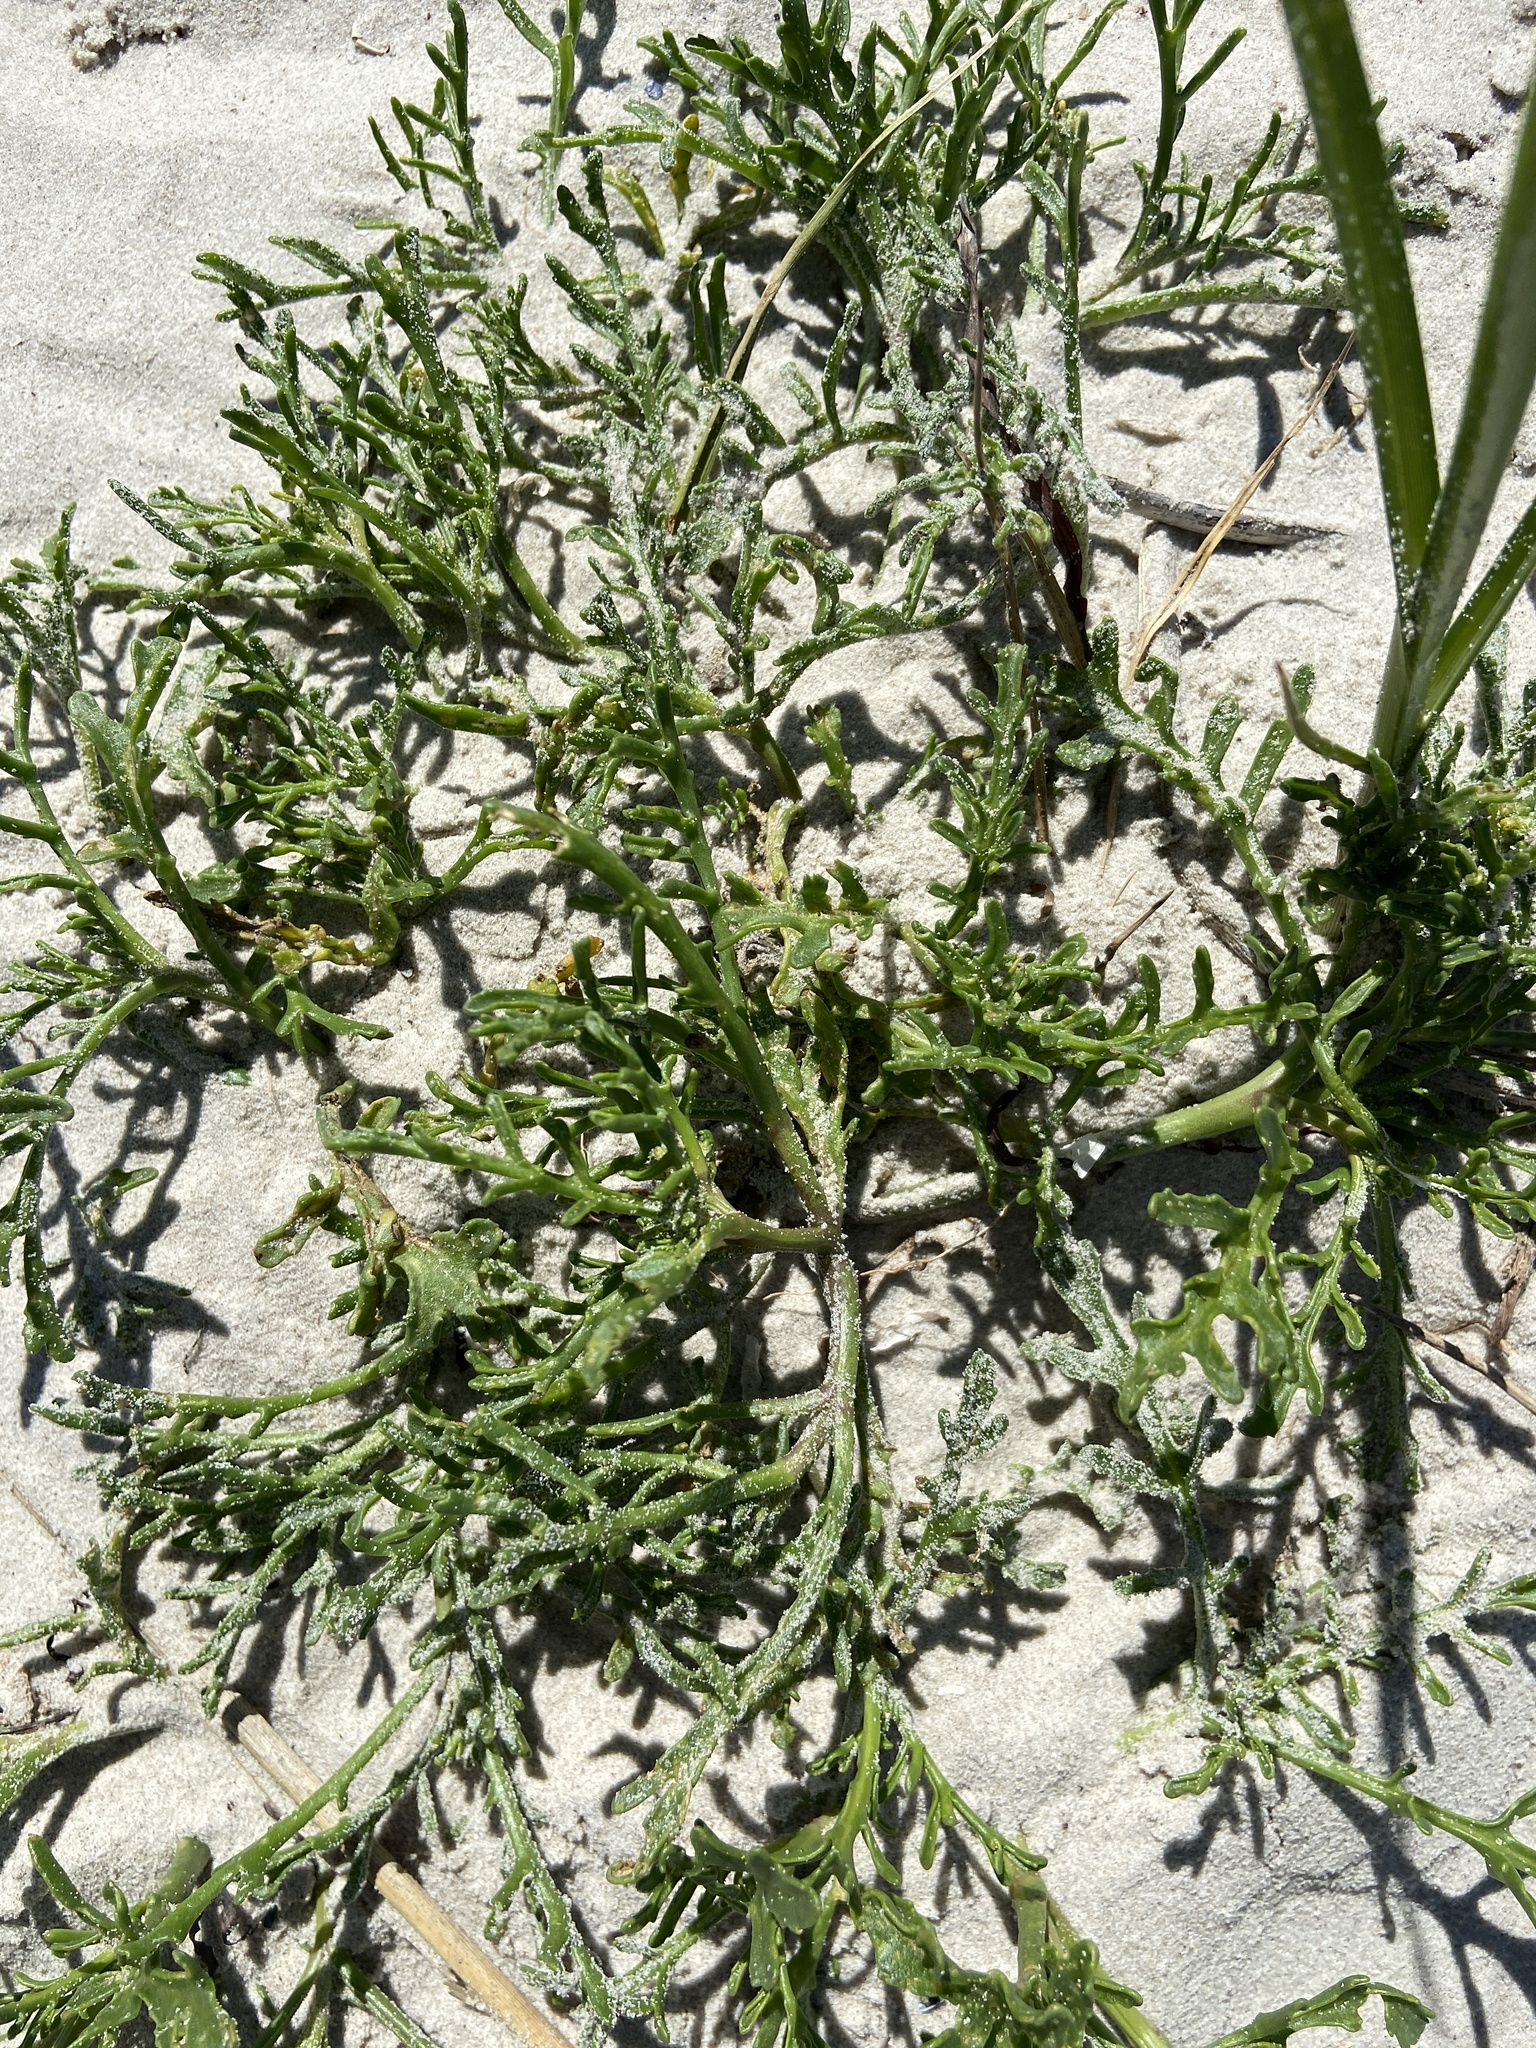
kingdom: Plantae
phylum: Tracheophyta
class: Magnoliopsida
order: Brassicales
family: Brassicaceae
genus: Cakile
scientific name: Cakile maritima
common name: Sea rocket
